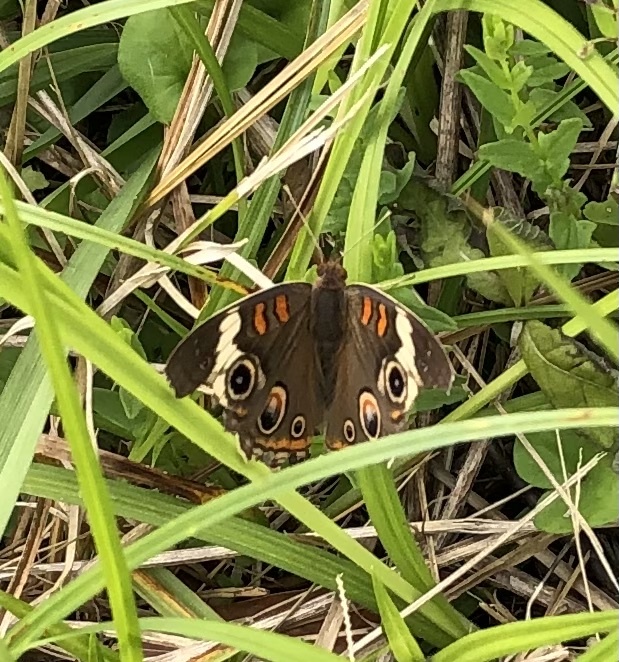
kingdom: Animalia
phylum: Arthropoda
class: Insecta
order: Lepidoptera
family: Nymphalidae
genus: Junonia
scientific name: Junonia coenia
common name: Common buckeye
